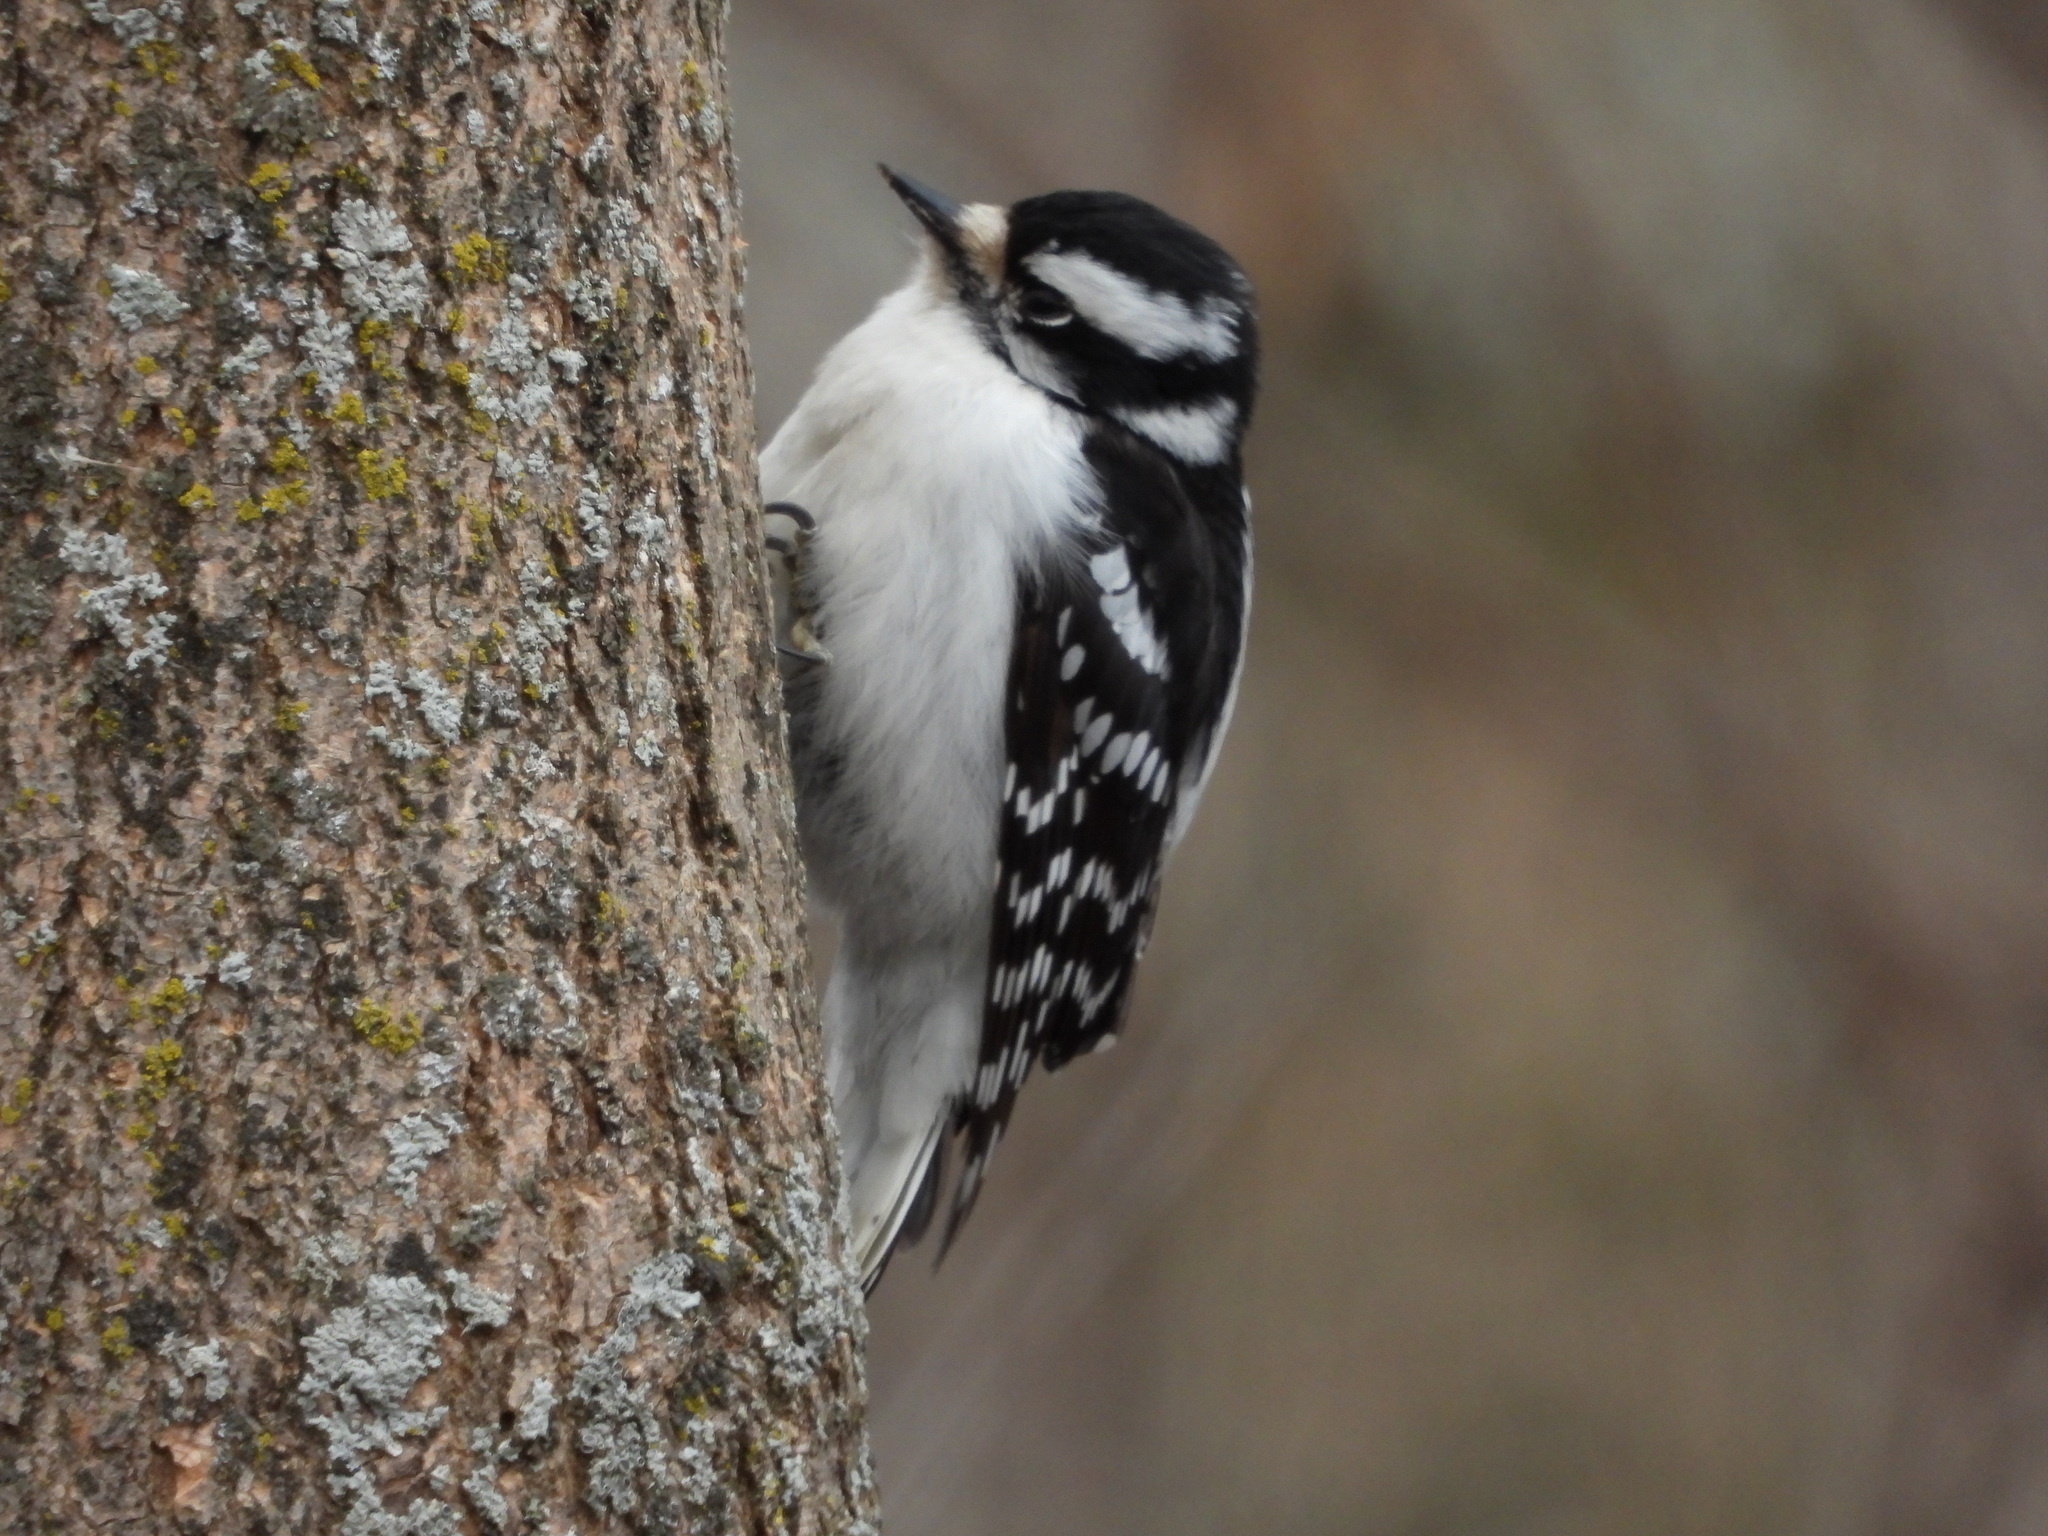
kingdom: Animalia
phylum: Chordata
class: Aves
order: Piciformes
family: Picidae
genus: Dryobates
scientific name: Dryobates pubescens
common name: Downy woodpecker
